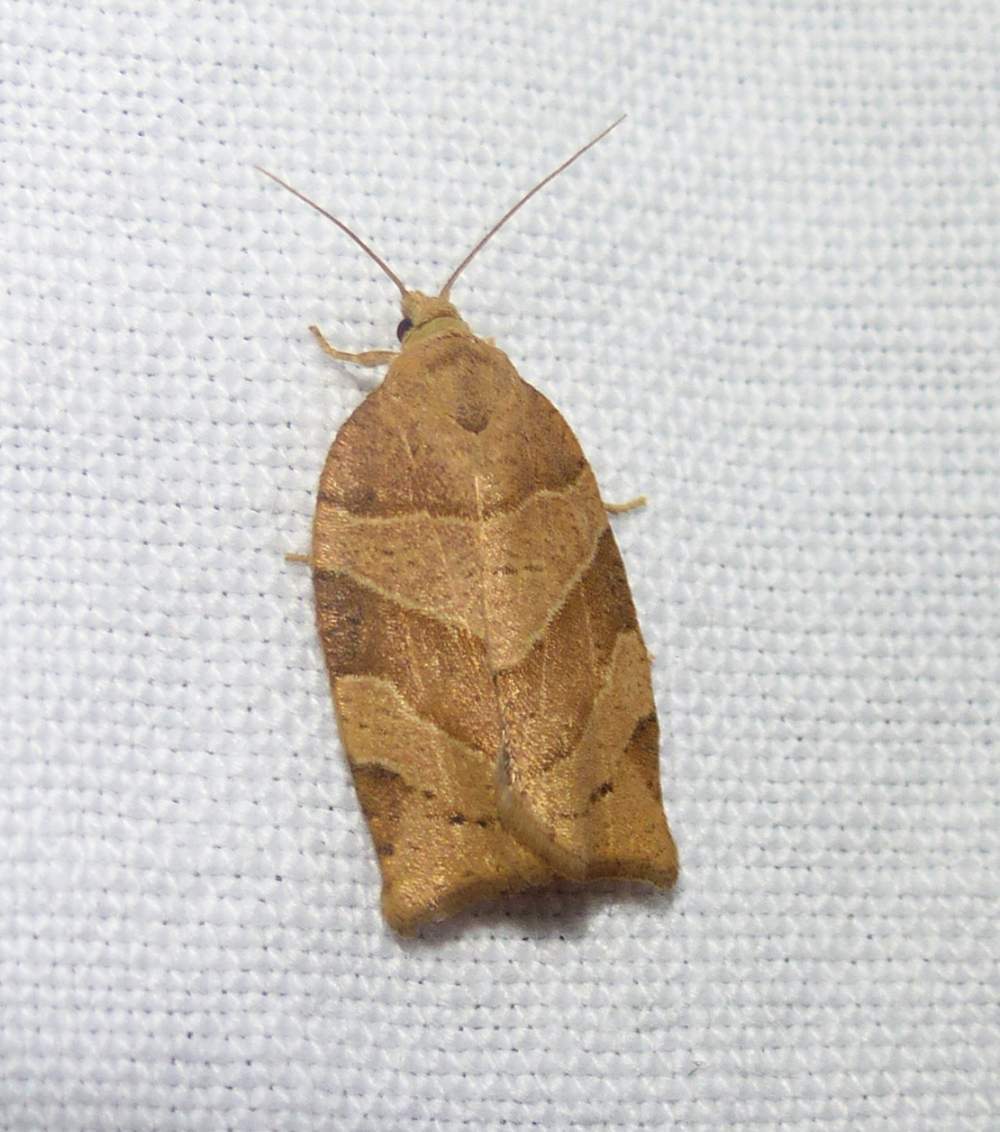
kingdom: Animalia
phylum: Arthropoda
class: Insecta
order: Lepidoptera
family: Tortricidae
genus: Pandemis
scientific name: Pandemis lamprosana
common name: Woodgrain leafroller moth
